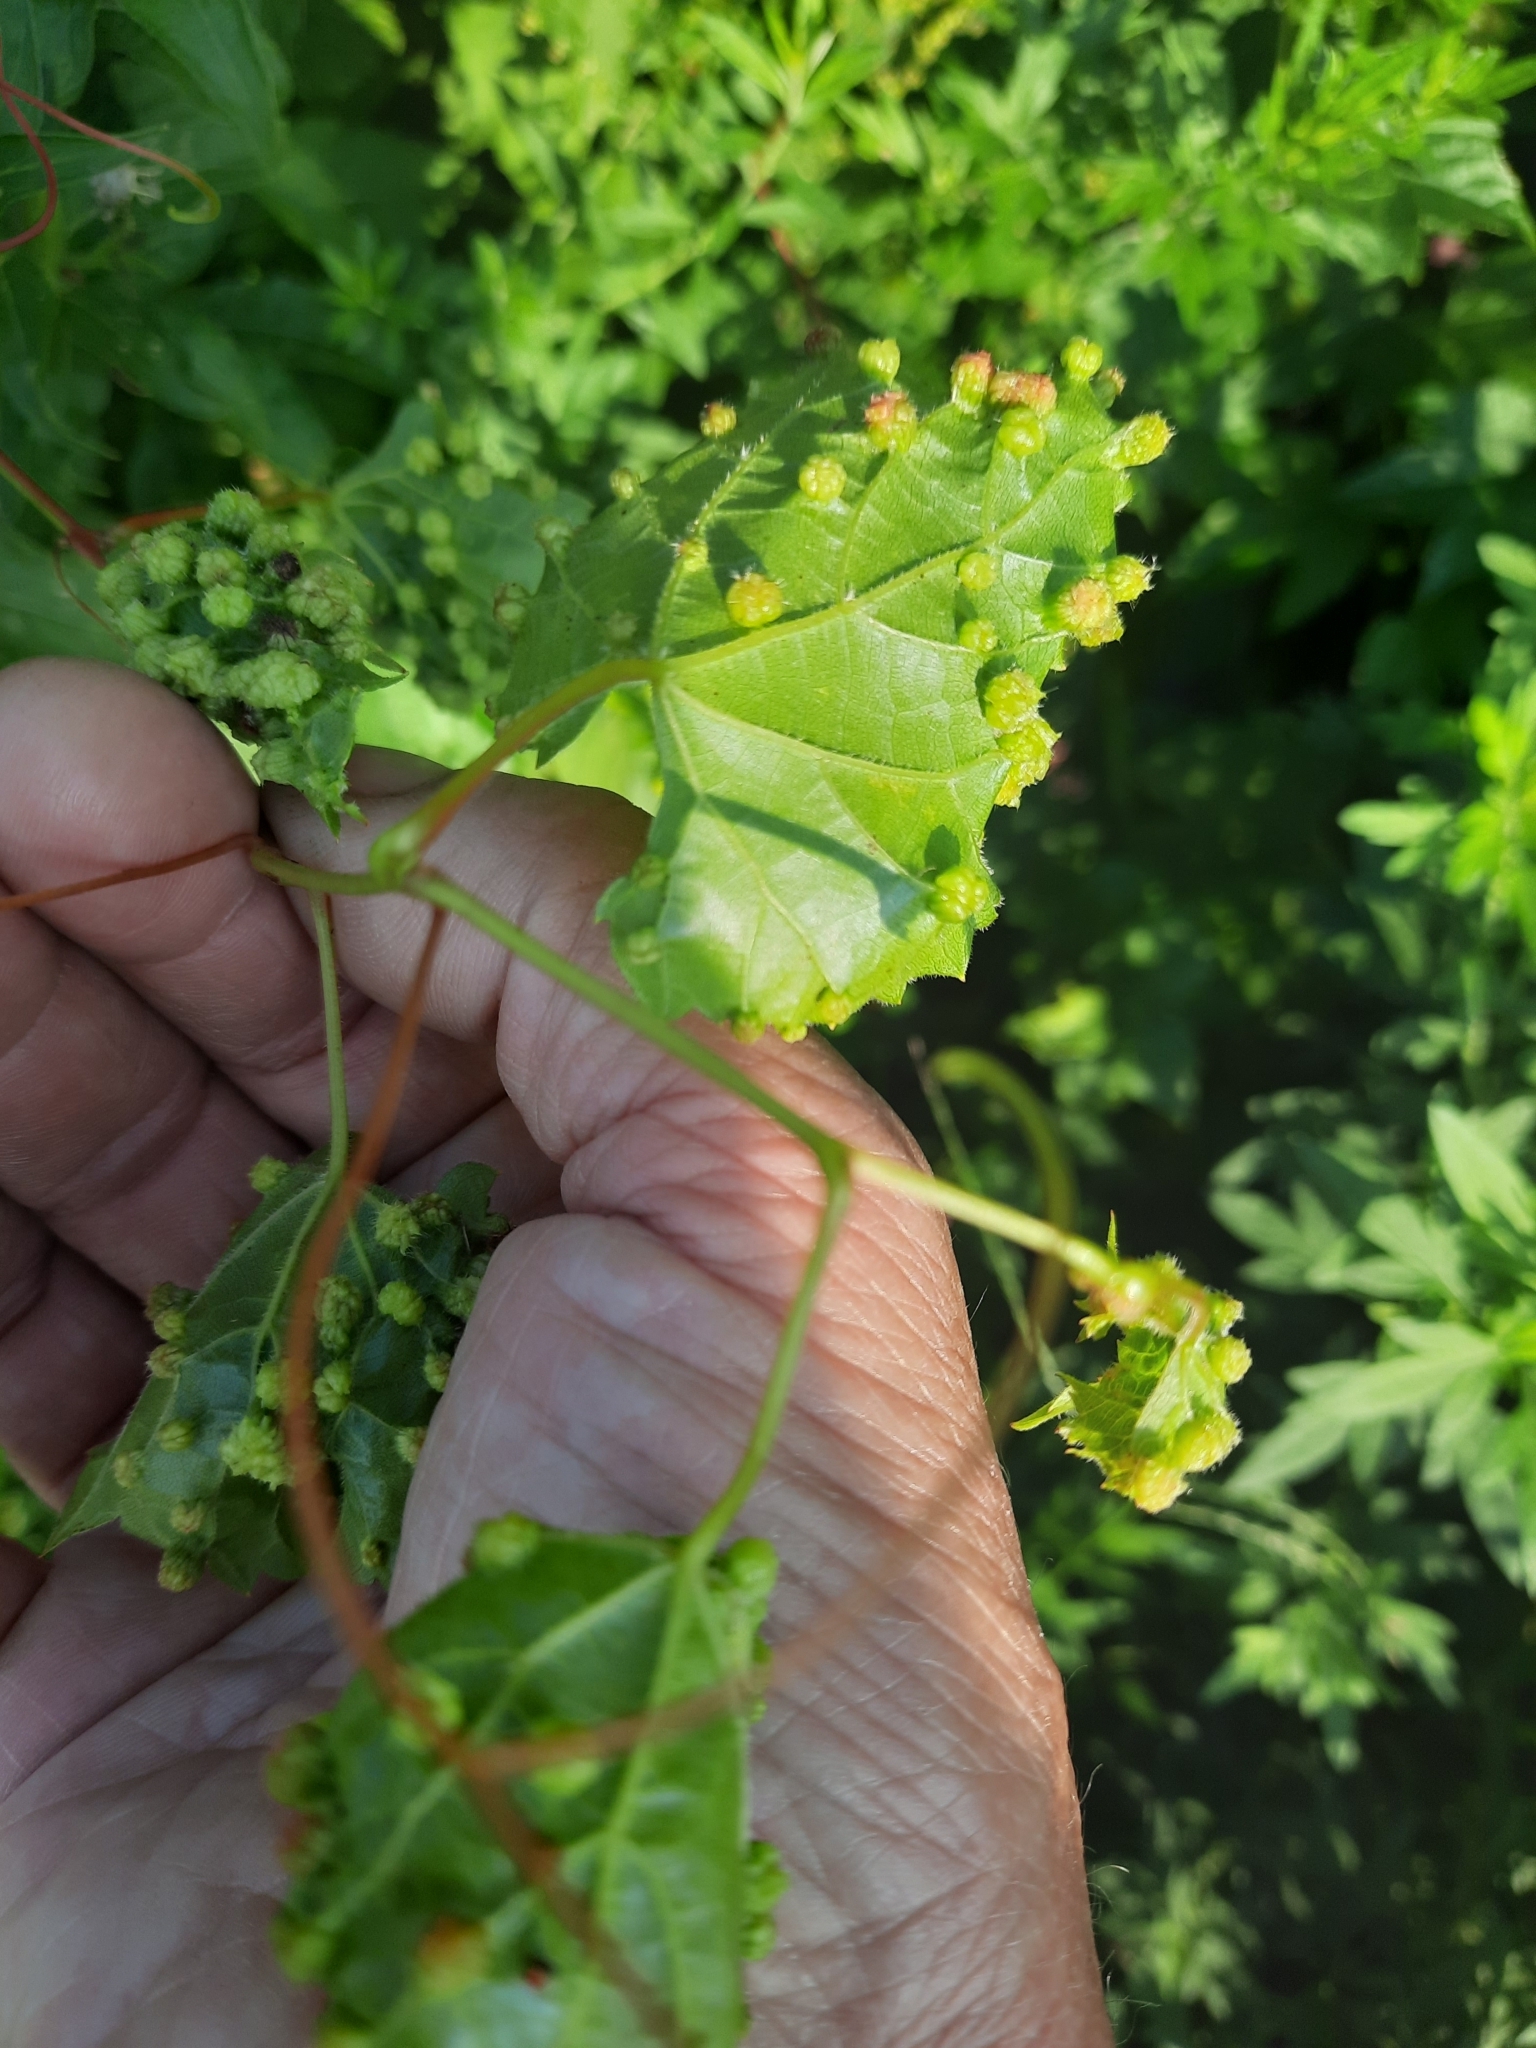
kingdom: Animalia
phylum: Arthropoda
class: Insecta
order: Hemiptera
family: Phylloxeridae
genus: Daktulosphaira
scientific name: Daktulosphaira vitifoliae
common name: Grape phylloxera
